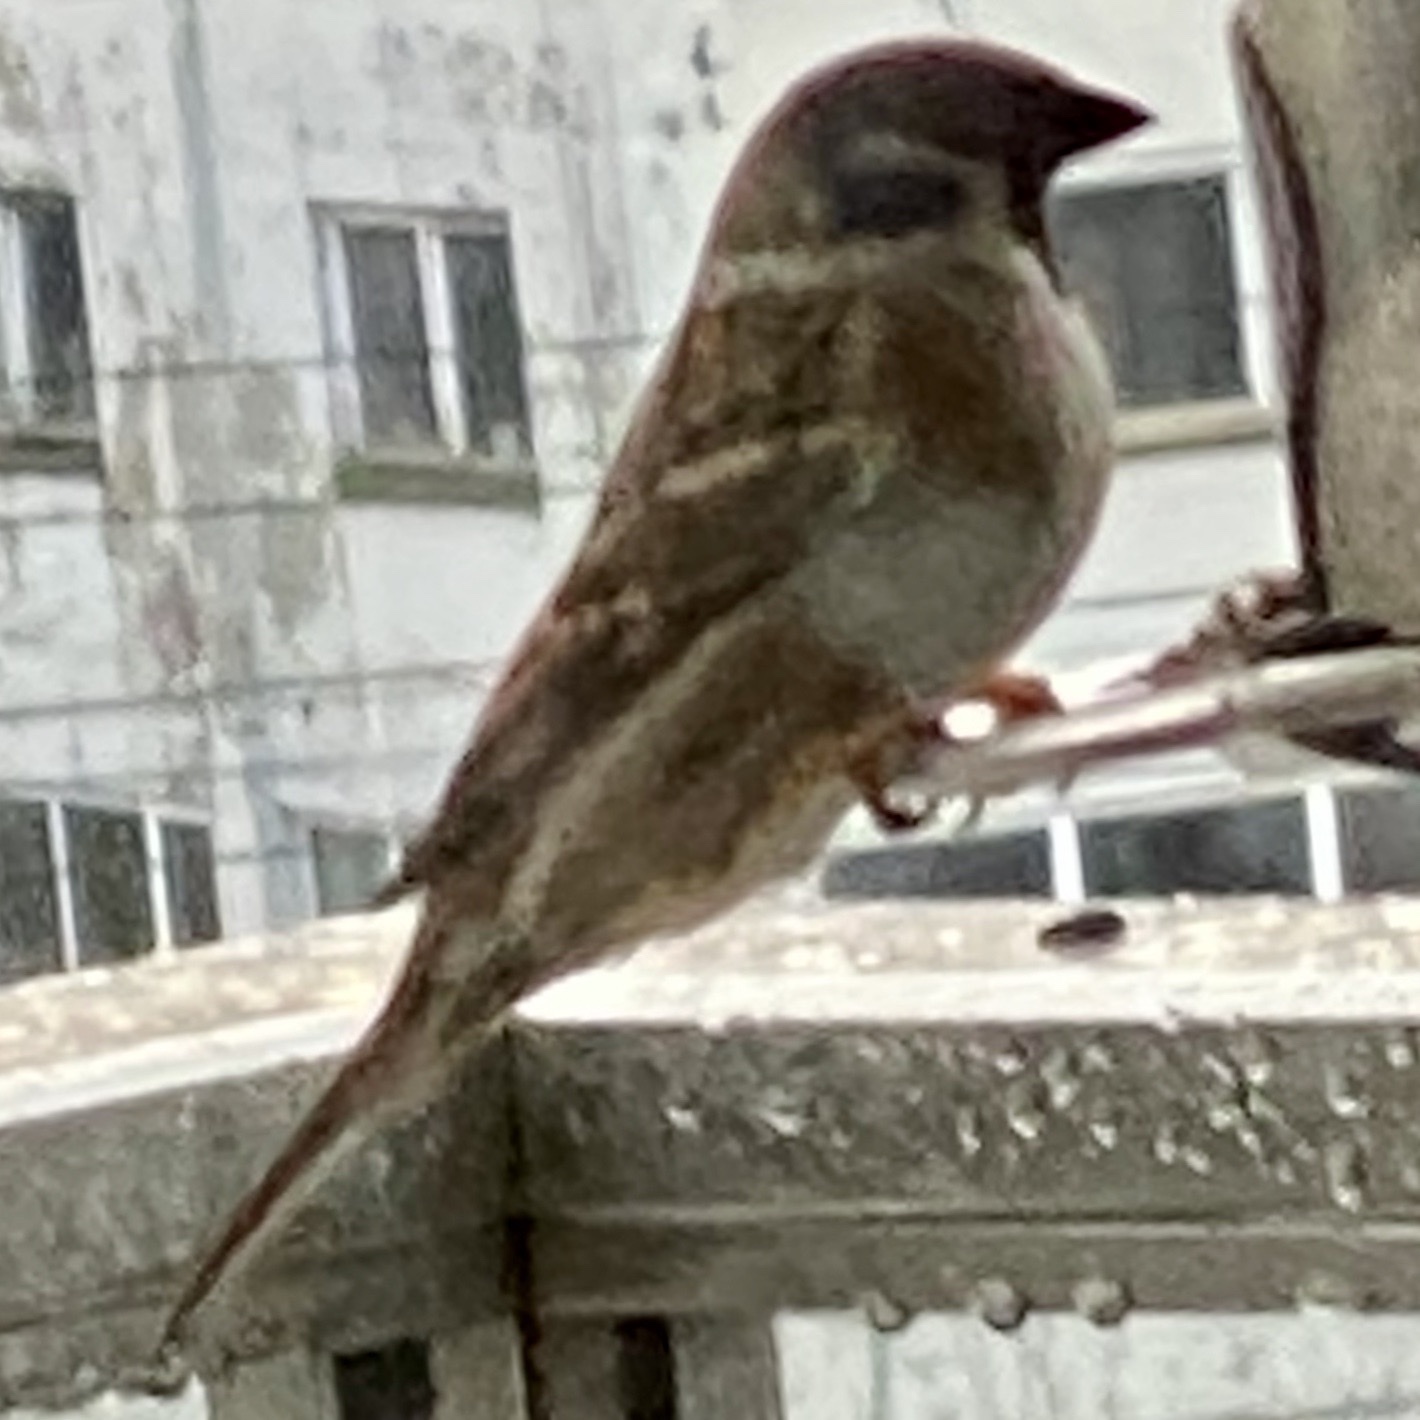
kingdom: Animalia
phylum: Chordata
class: Aves
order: Passeriformes
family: Passeridae
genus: Passer
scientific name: Passer montanus
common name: Eurasian tree sparrow
